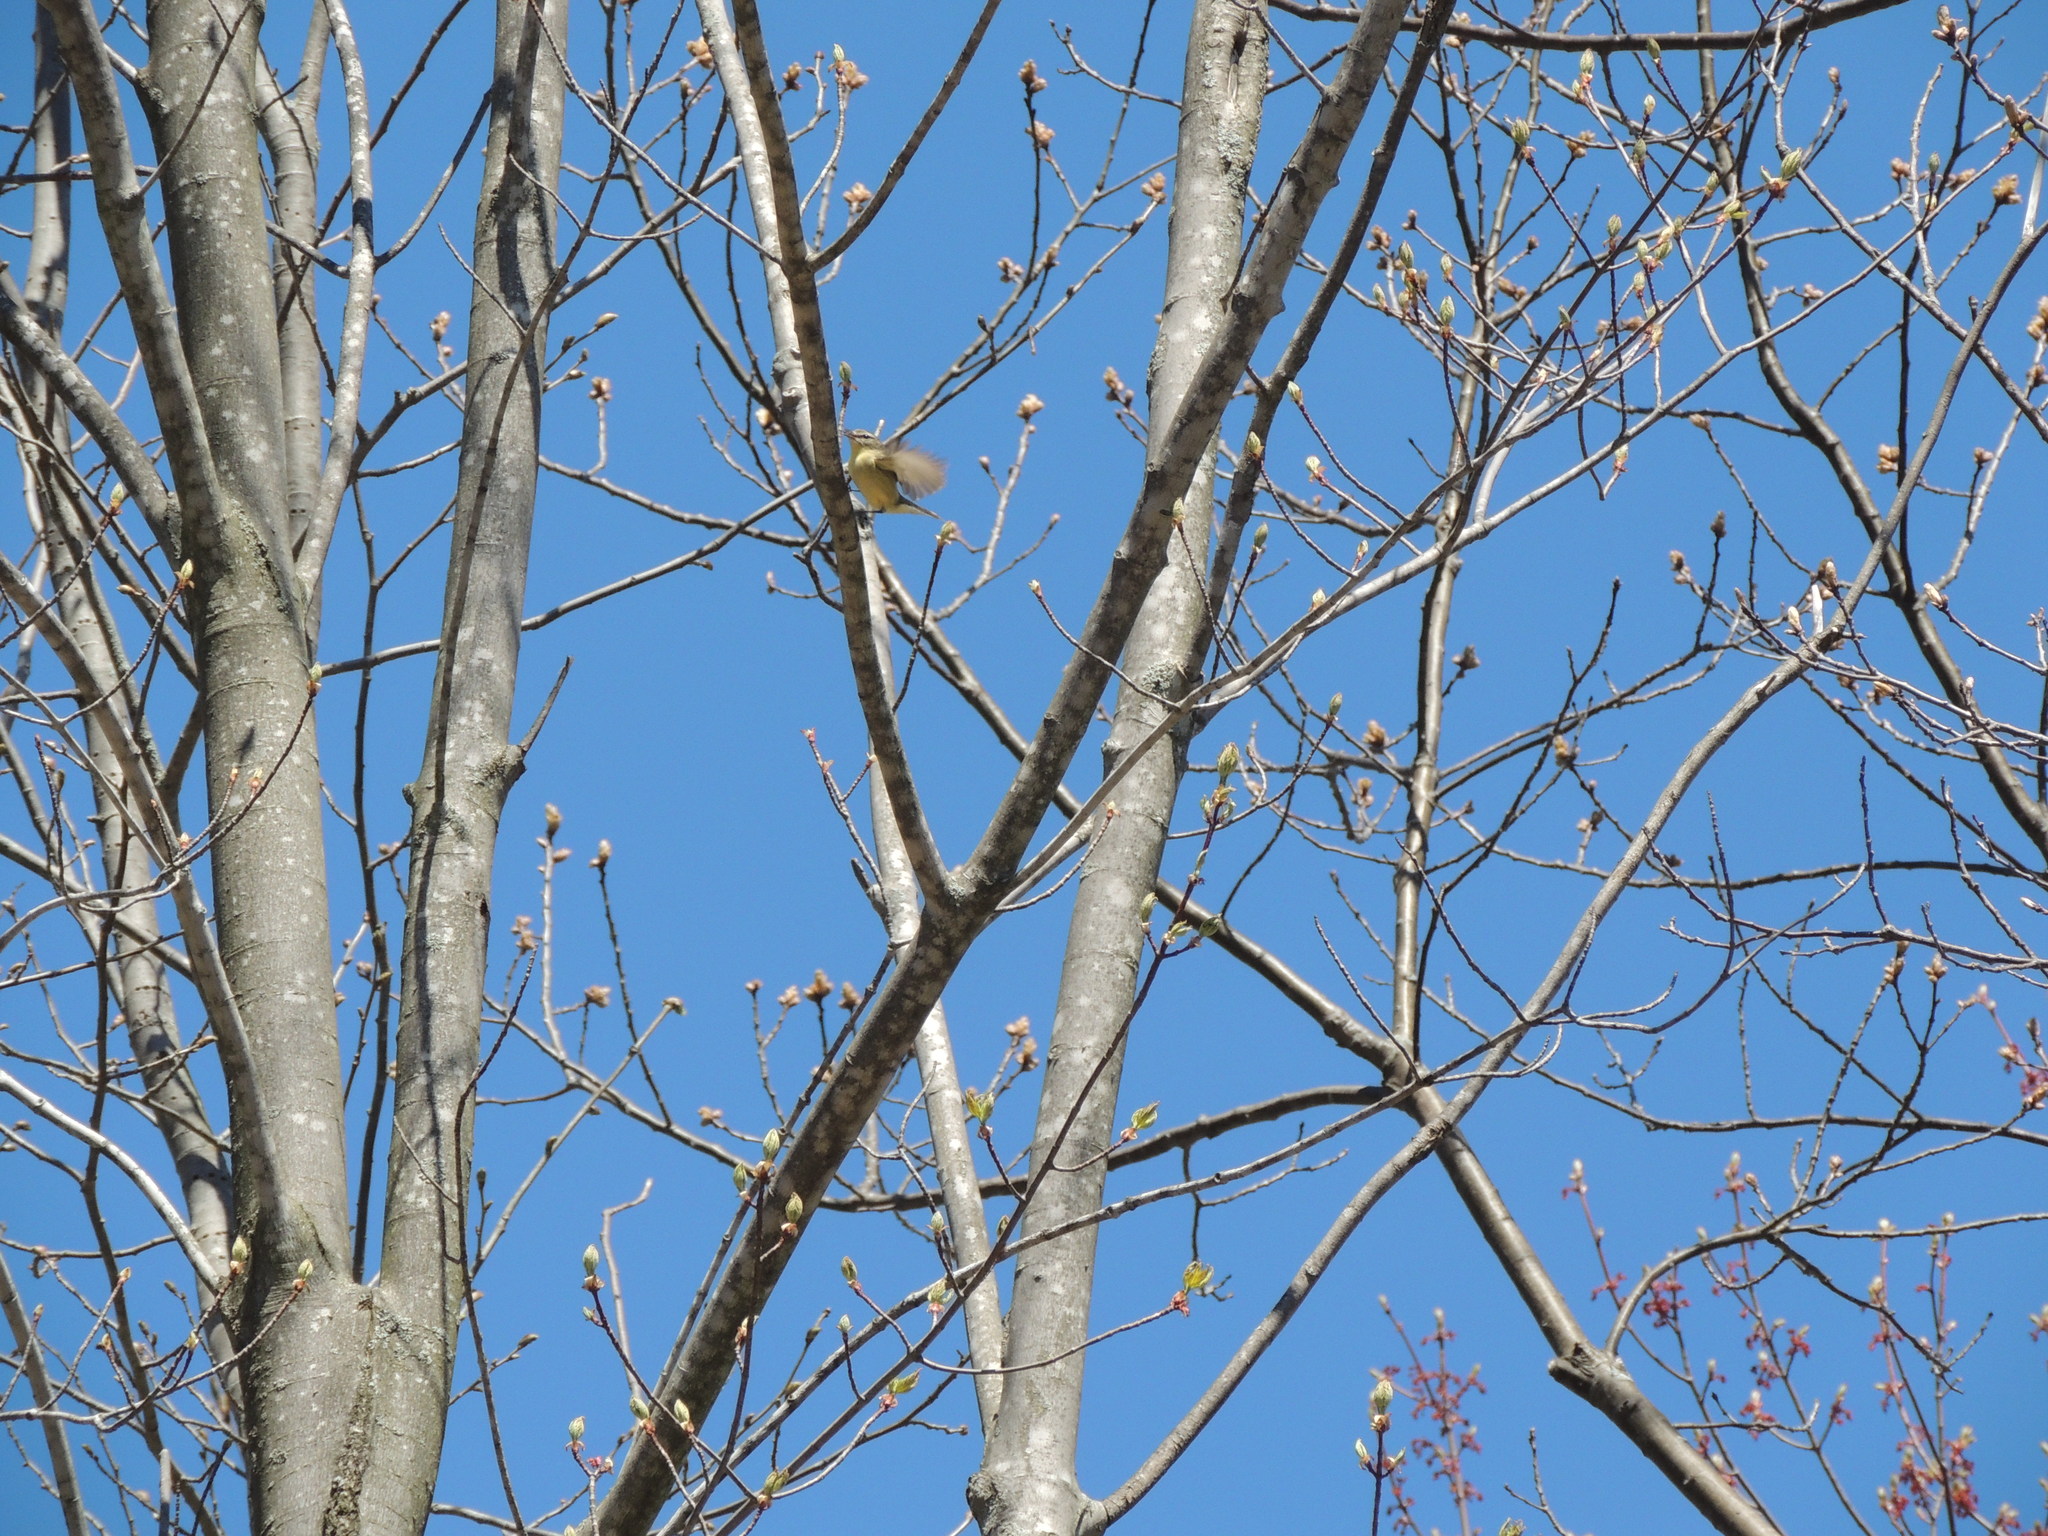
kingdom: Animalia
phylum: Chordata
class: Aves
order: Passeriformes
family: Vireonidae
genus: Vireo
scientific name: Vireo philadelphicus
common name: Philadelphia vireo
